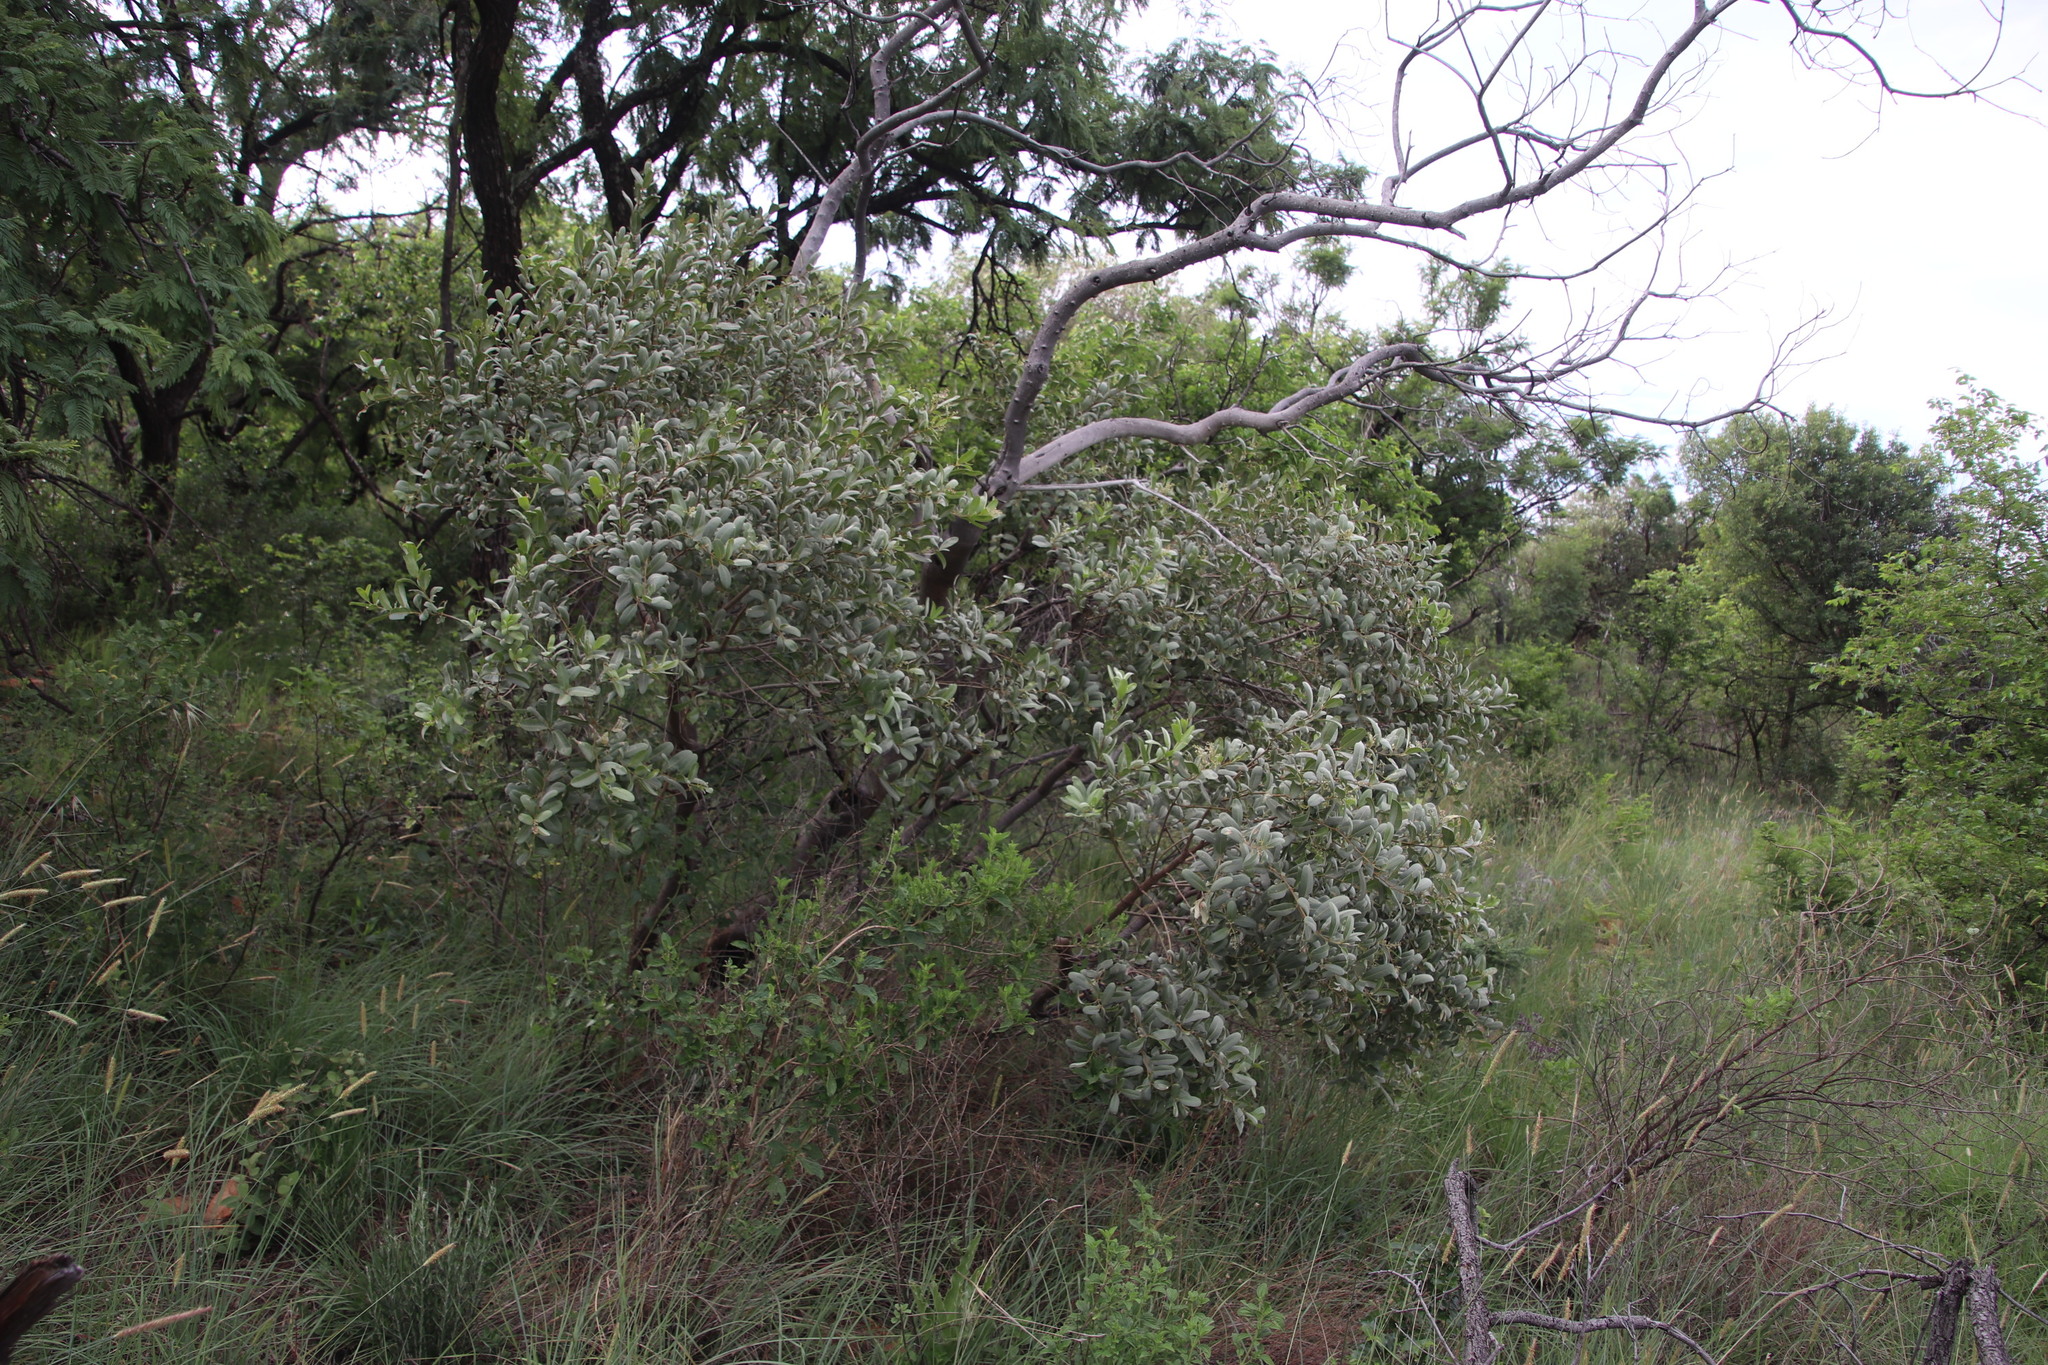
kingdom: Plantae
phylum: Tracheophyta
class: Magnoliopsida
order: Sapindales
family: Anacardiaceae
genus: Ozoroa
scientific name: Ozoroa paniculosa
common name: Bushveld ozoroa
